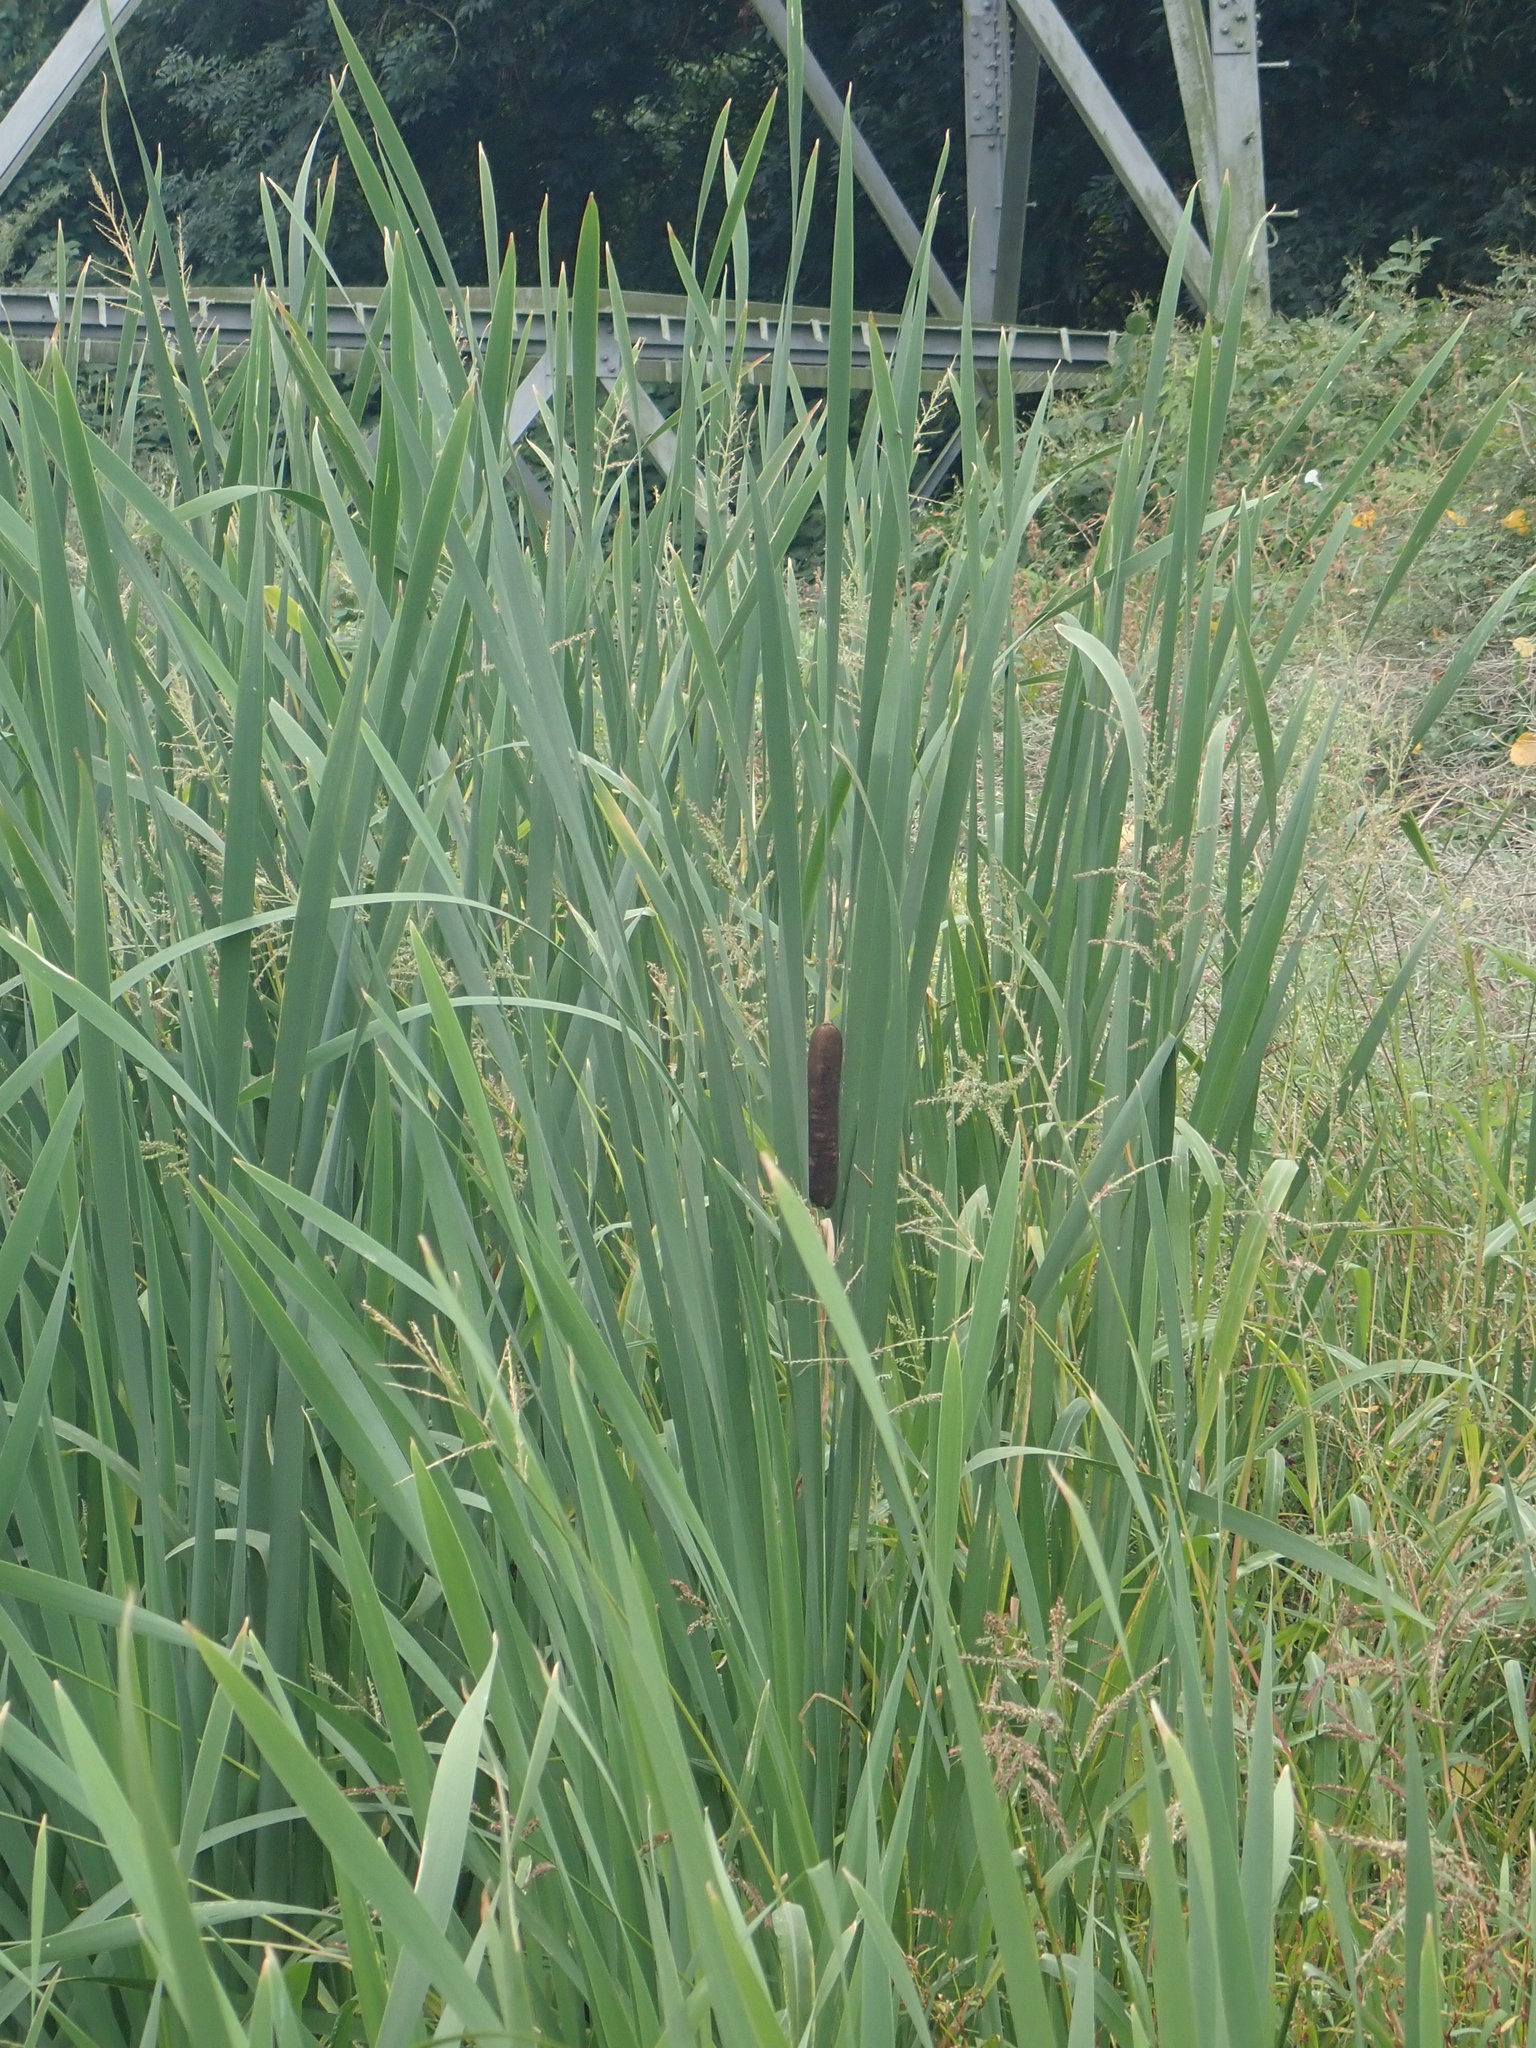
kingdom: Plantae
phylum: Tracheophyta
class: Liliopsida
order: Poales
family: Typhaceae
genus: Typha
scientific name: Typha latifolia
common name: Broadleaf cattail
